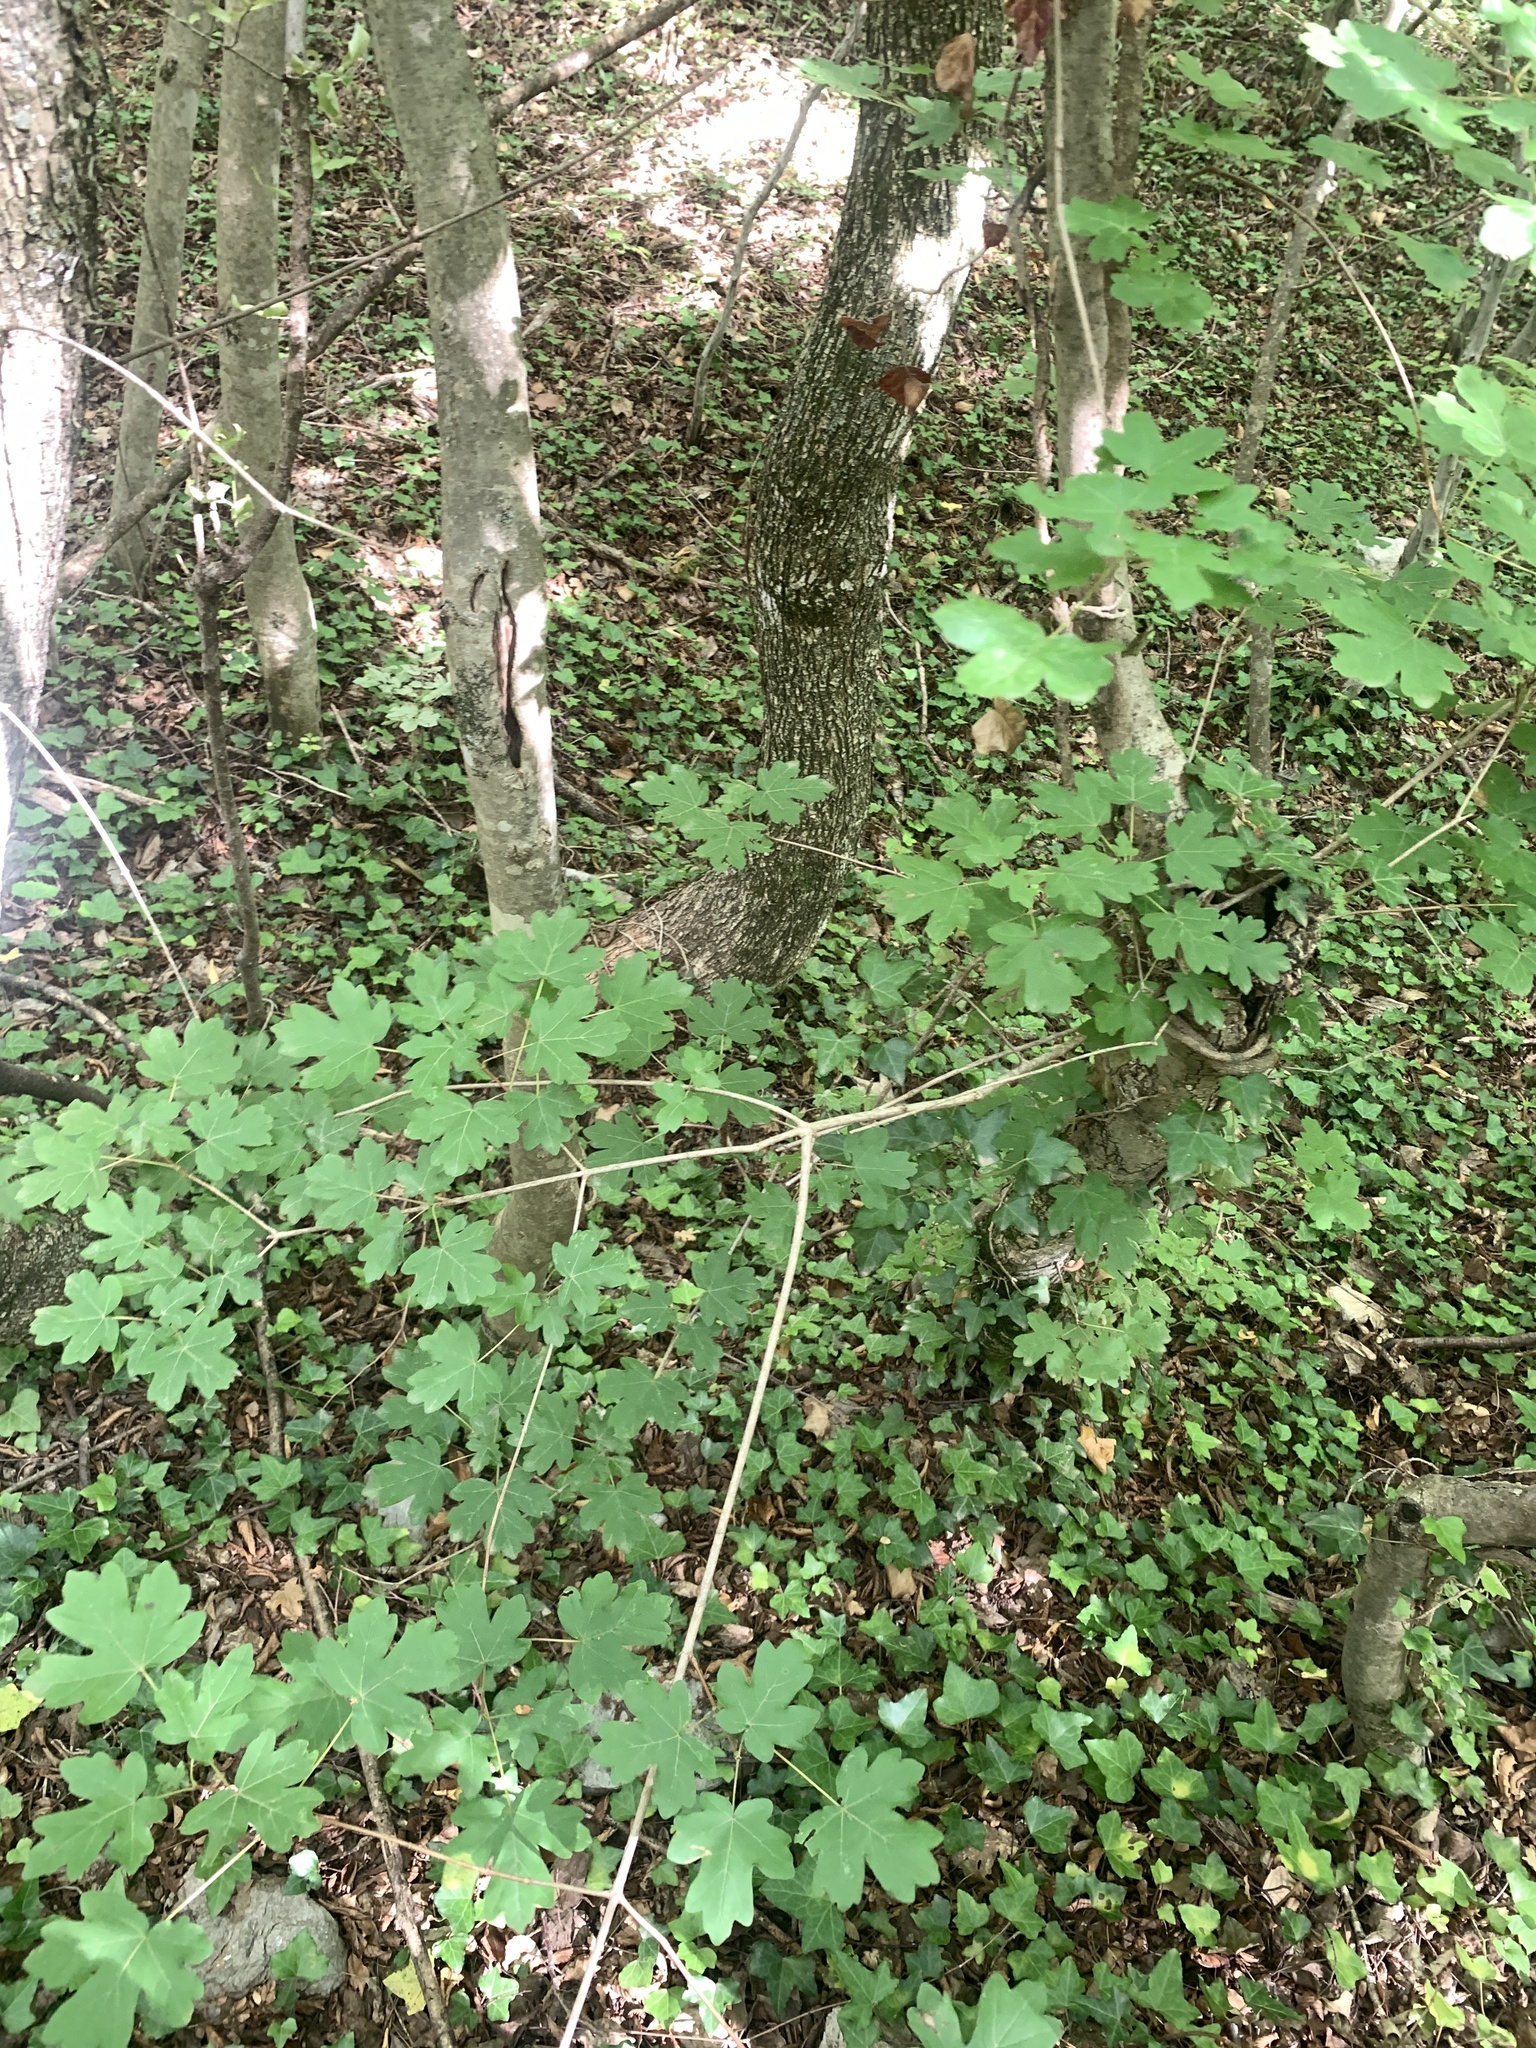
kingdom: Plantae
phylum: Tracheophyta
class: Magnoliopsida
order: Sapindales
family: Sapindaceae
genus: Acer
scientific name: Acer campestre
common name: Field maple
